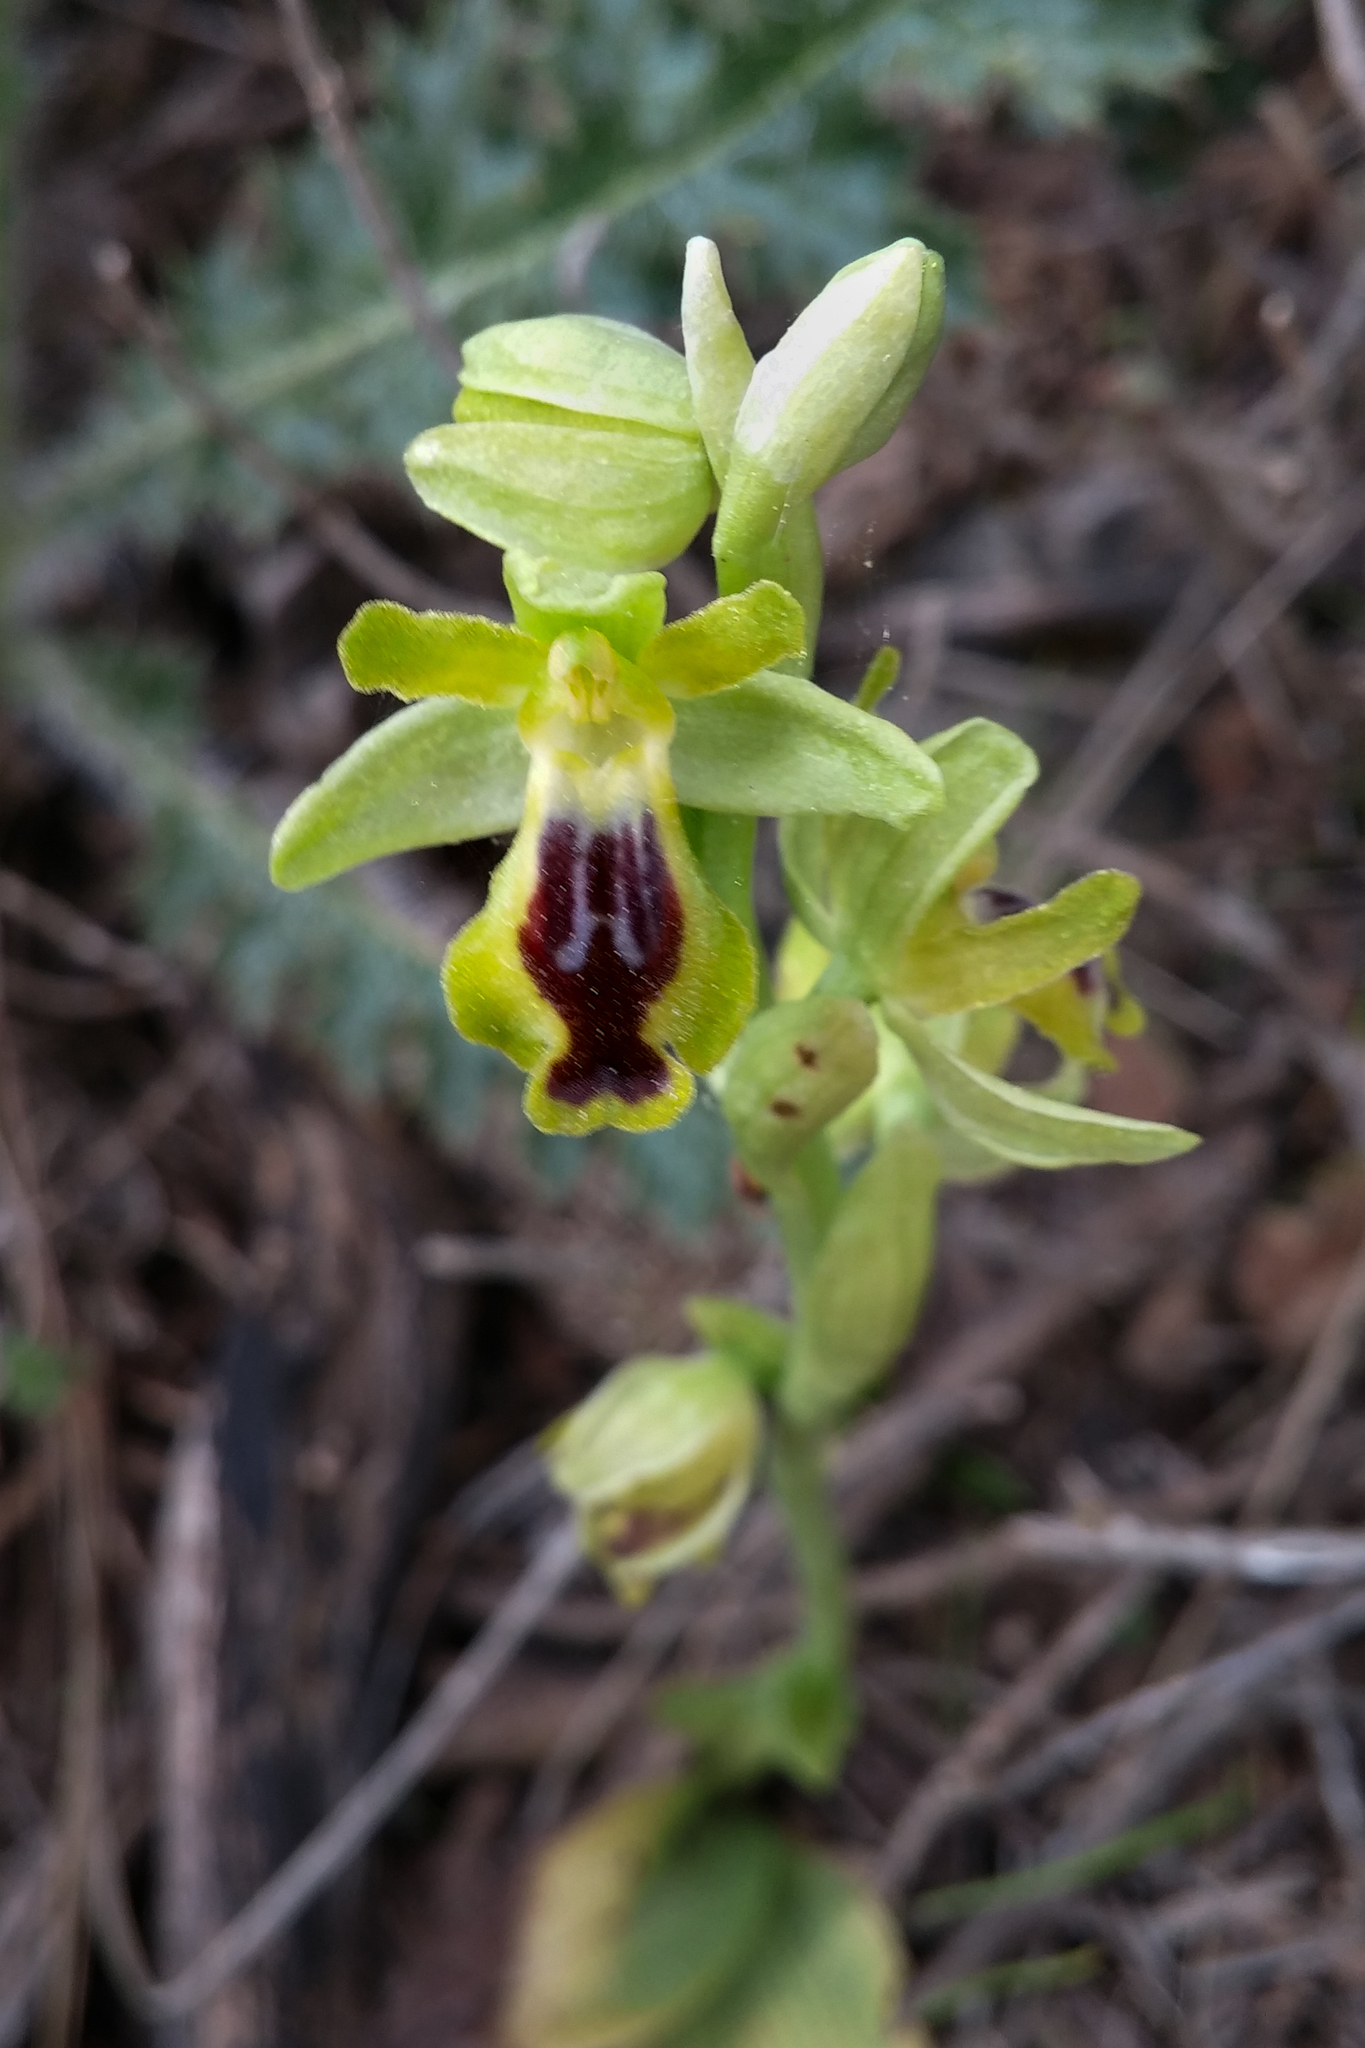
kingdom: Plantae
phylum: Tracheophyta
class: Liliopsida
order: Asparagales
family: Orchidaceae
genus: Ophrys
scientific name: Ophrys lutea
